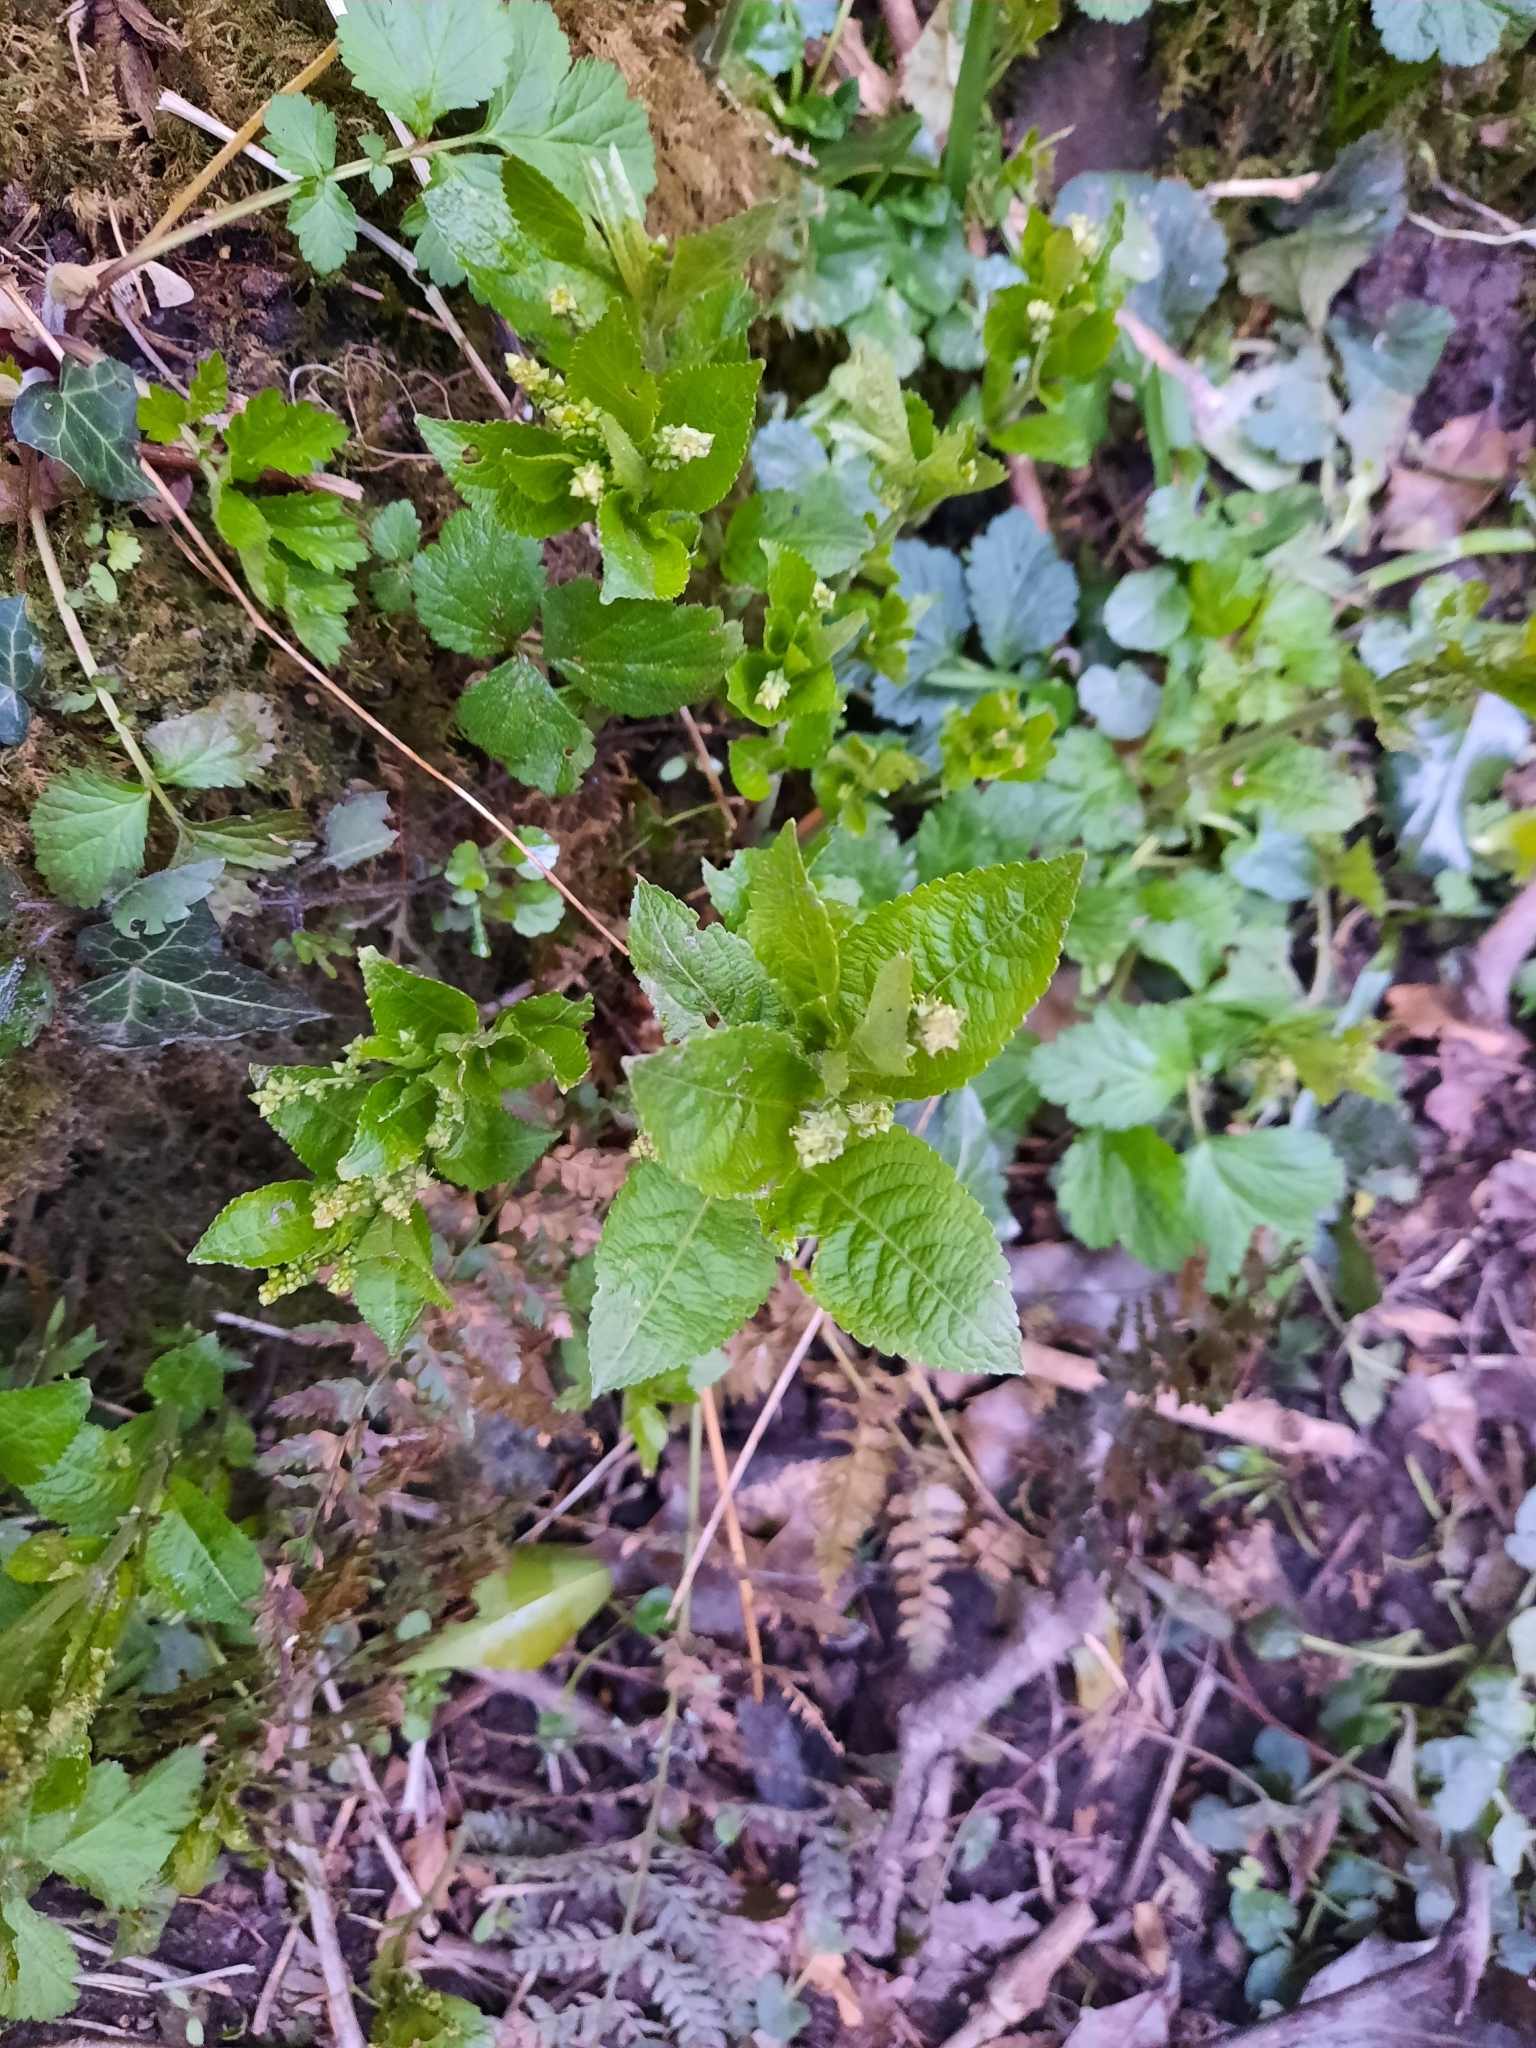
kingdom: Plantae
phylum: Tracheophyta
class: Magnoliopsida
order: Malpighiales
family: Euphorbiaceae
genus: Mercurialis
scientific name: Mercurialis perennis
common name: Dog mercury
